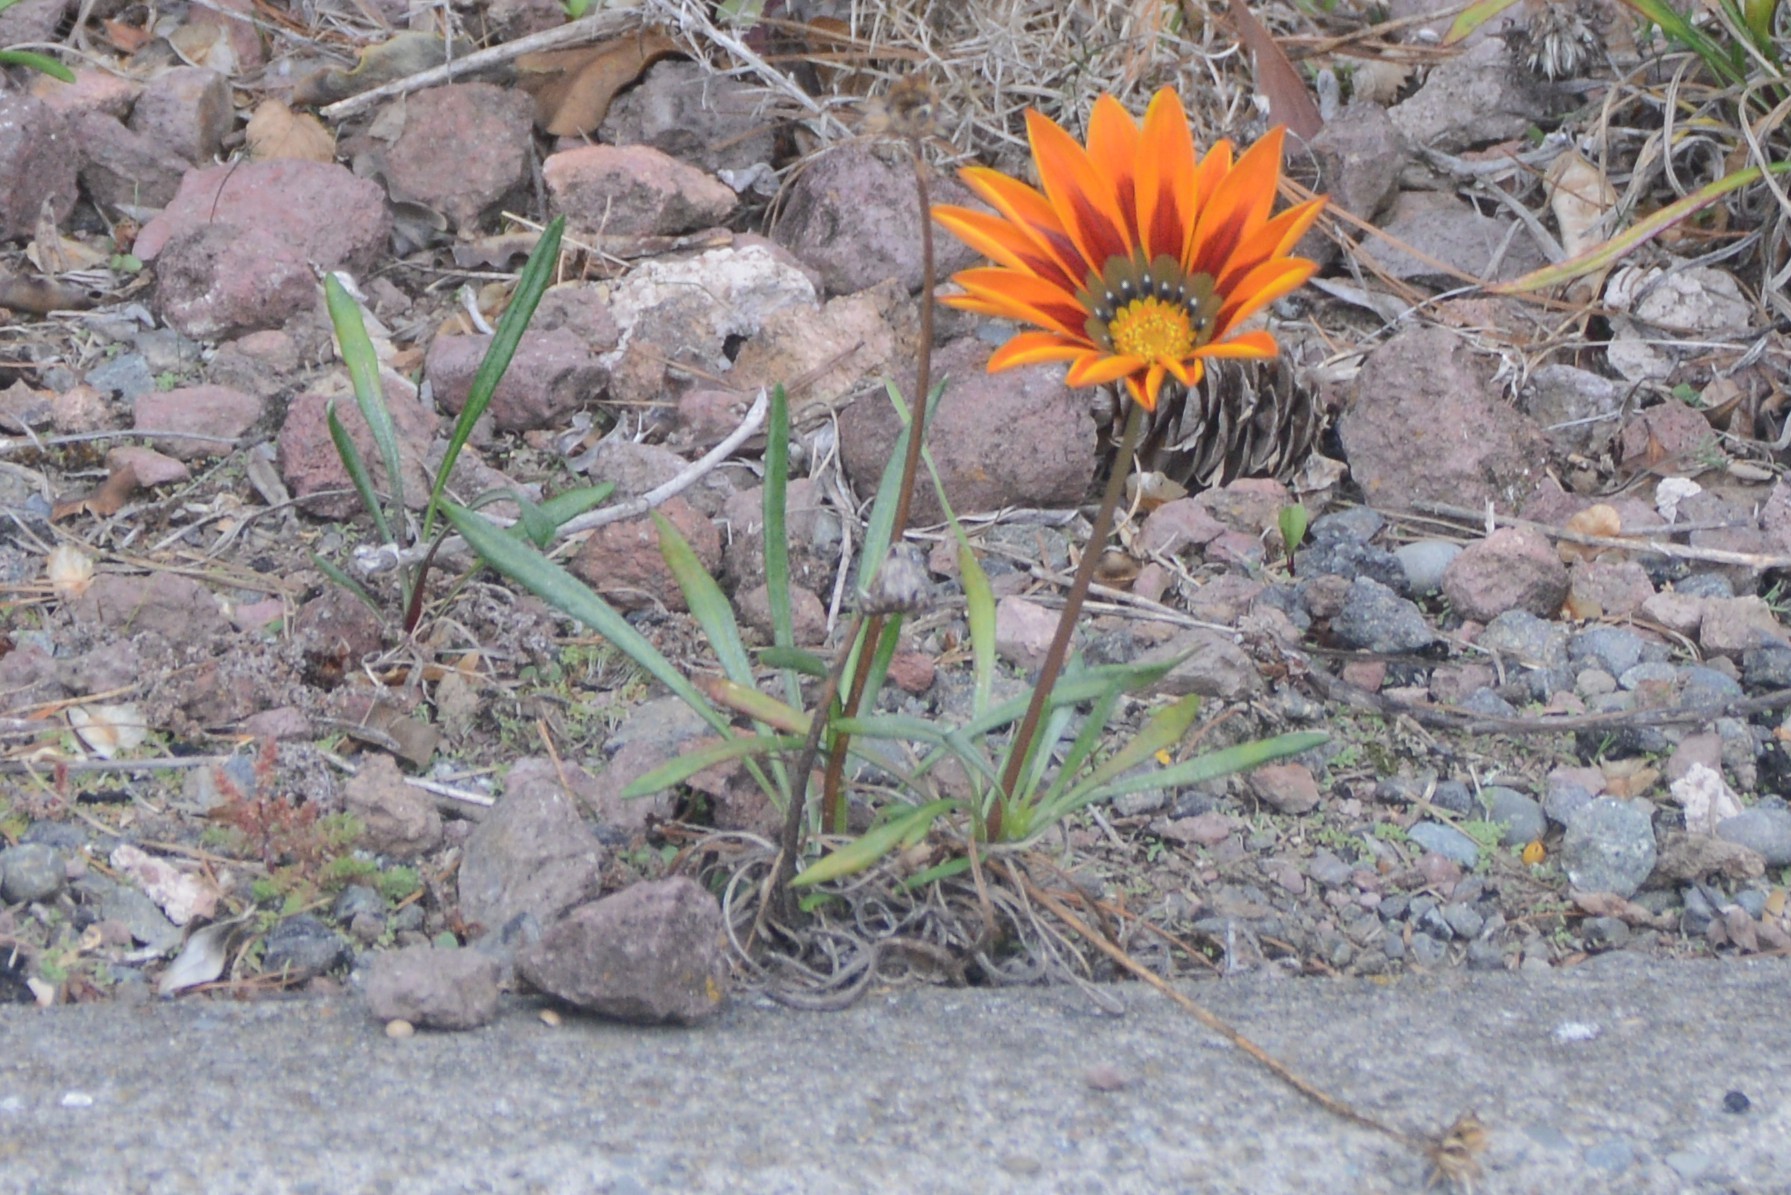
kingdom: Plantae
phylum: Tracheophyta
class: Magnoliopsida
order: Asterales
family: Asteraceae
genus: Gazania
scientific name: Gazania splendens
